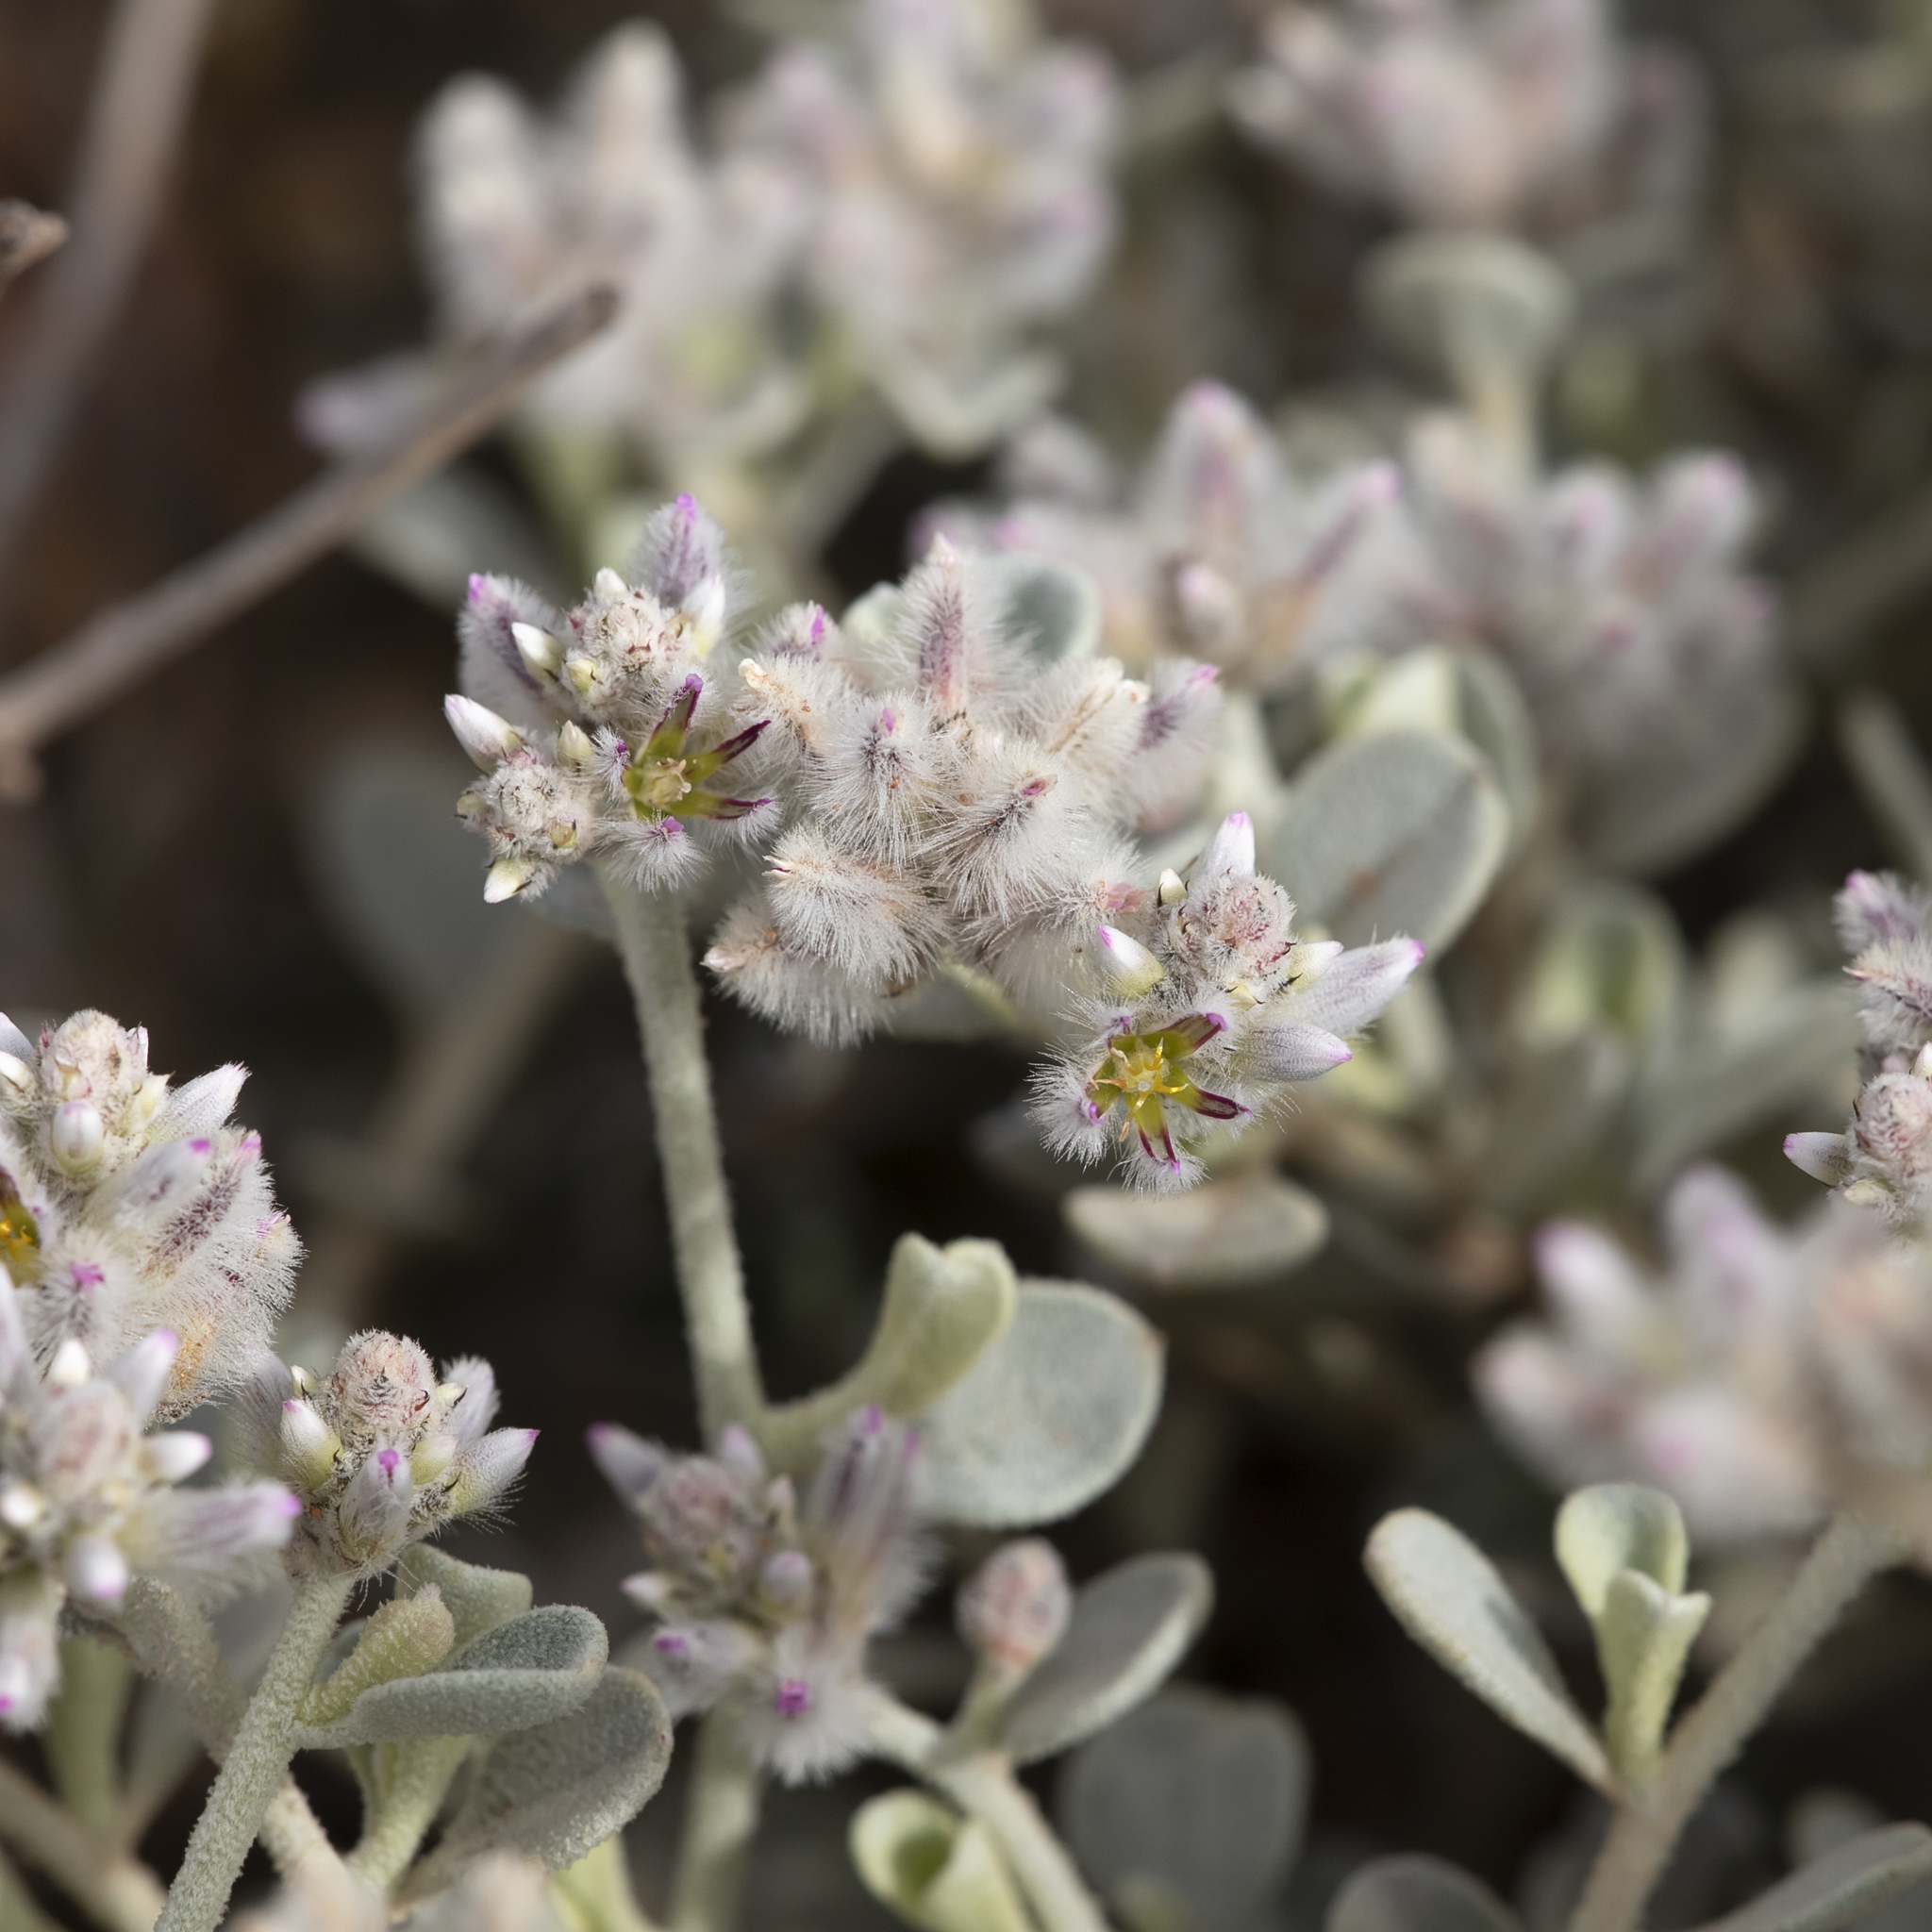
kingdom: Plantae
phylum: Tracheophyta
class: Magnoliopsida
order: Caryophyllales
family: Amaranthaceae
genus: Ptilotus
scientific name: Ptilotus obovatus
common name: Cottonbush
